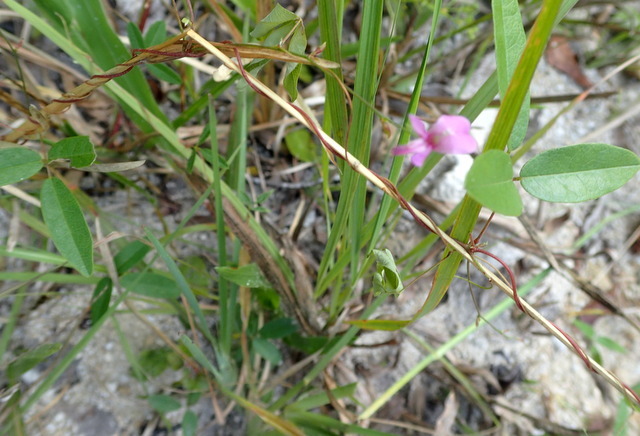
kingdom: Plantae
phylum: Tracheophyta
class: Magnoliopsida
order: Fabales
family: Fabaceae
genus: Galactia
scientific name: Galactia regularis
